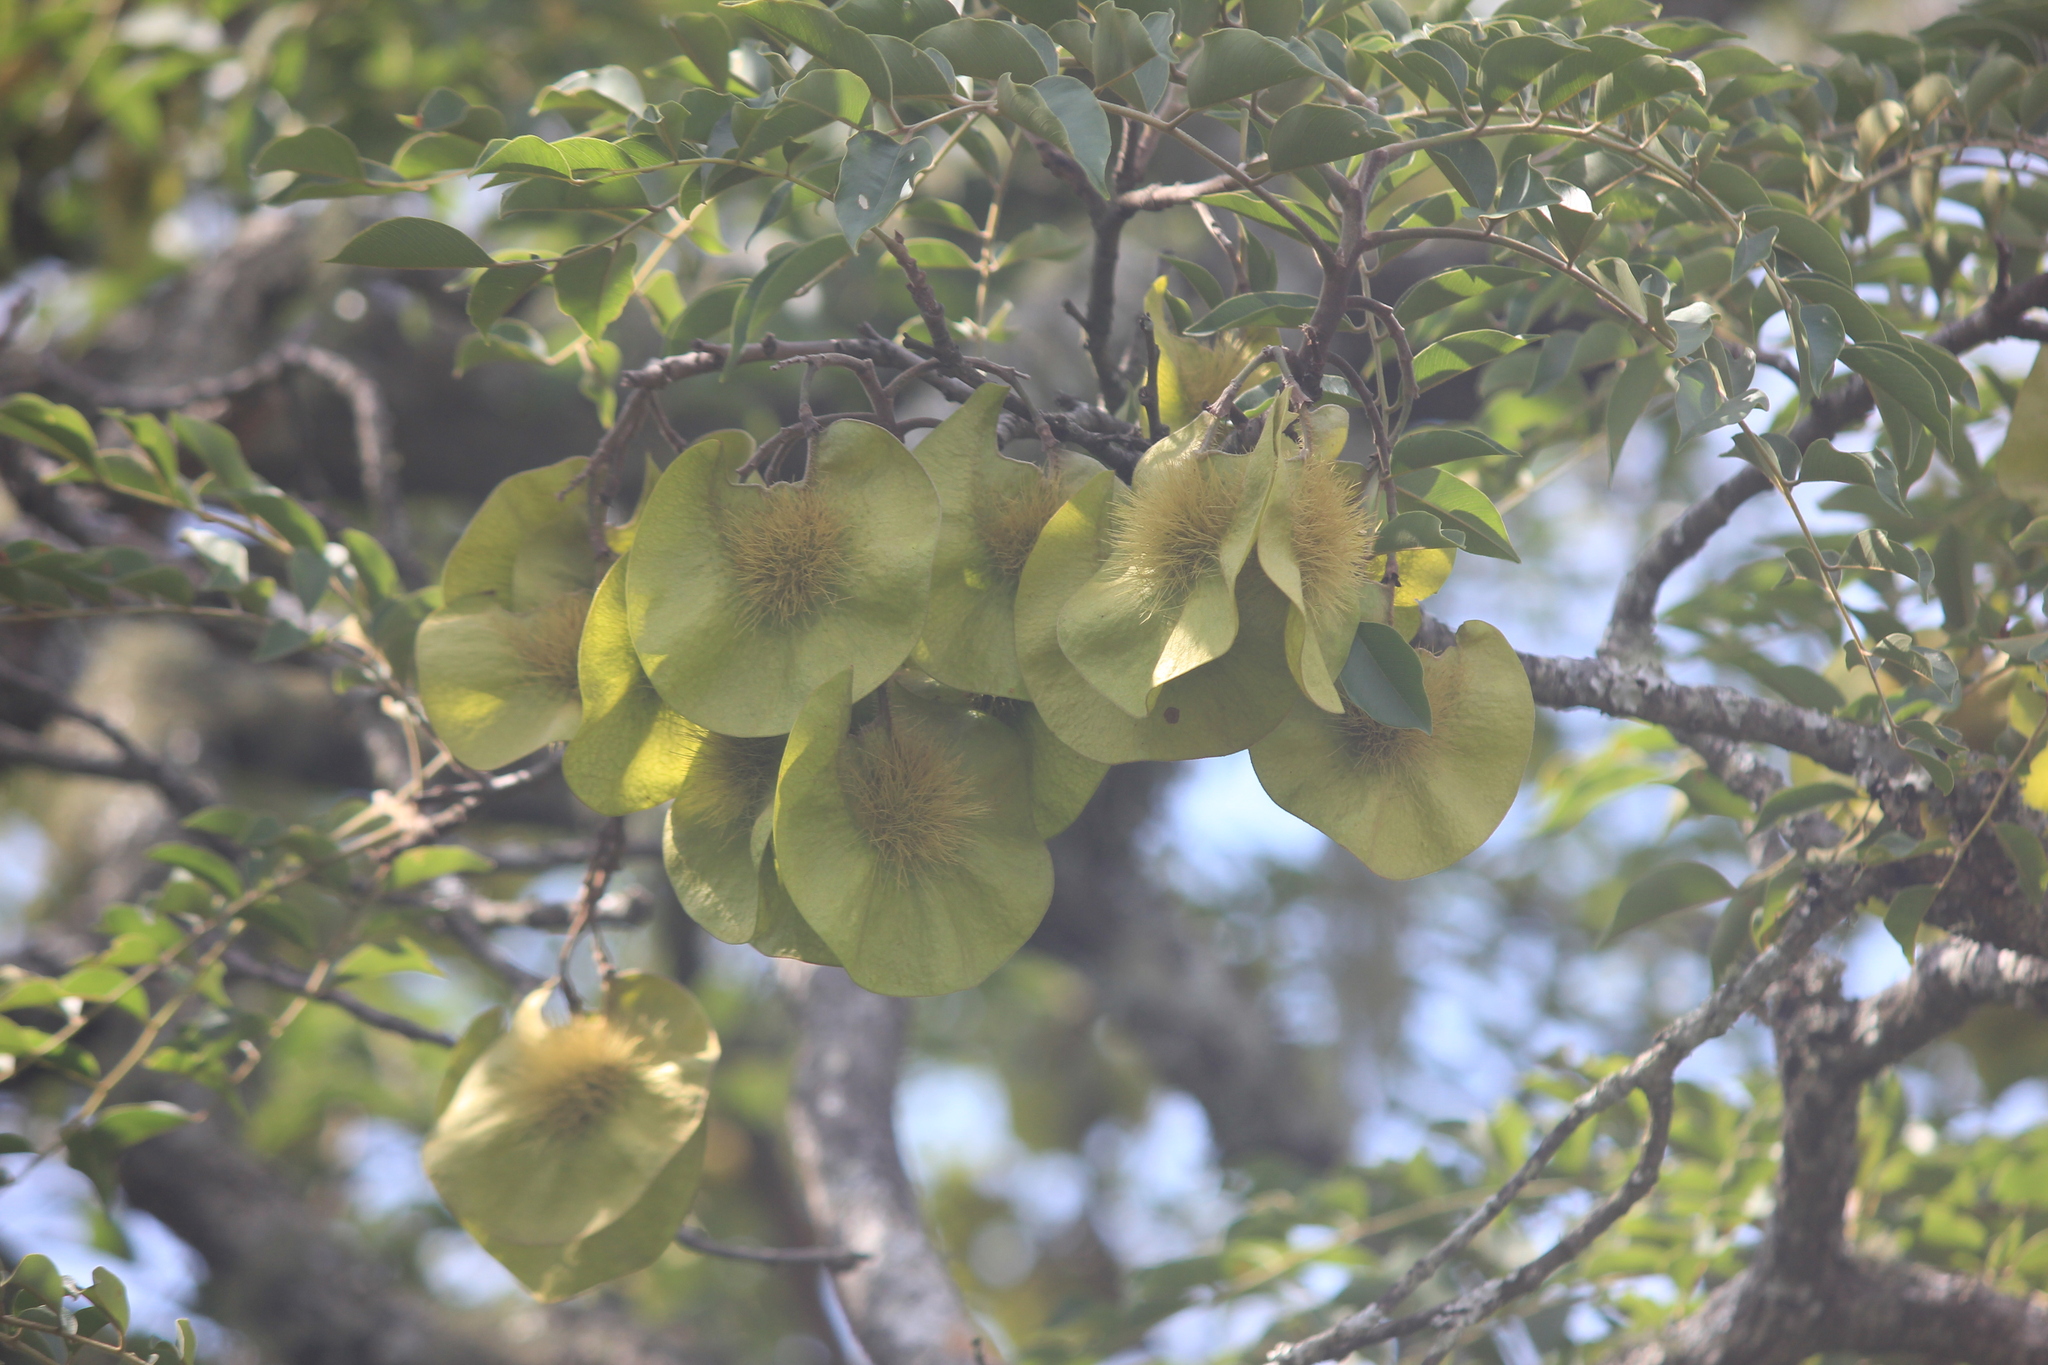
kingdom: Plantae
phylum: Tracheophyta
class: Magnoliopsida
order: Fabales
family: Fabaceae
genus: Pterocarpus
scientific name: Pterocarpus angolensis
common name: Bloodwood tree
